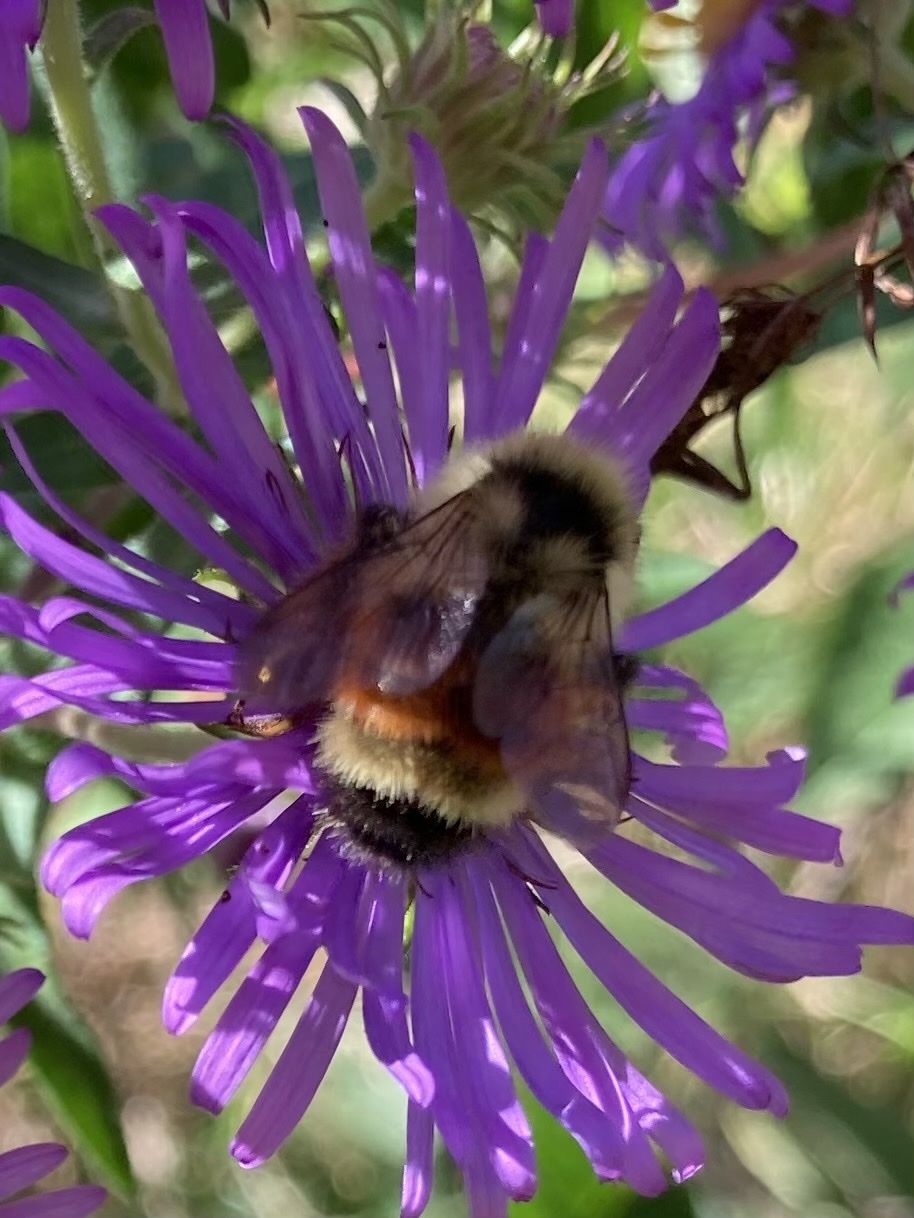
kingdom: Animalia
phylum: Arthropoda
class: Insecta
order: Hymenoptera
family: Apidae
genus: Bombus
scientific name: Bombus ternarius
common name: Tri-colored bumble bee
